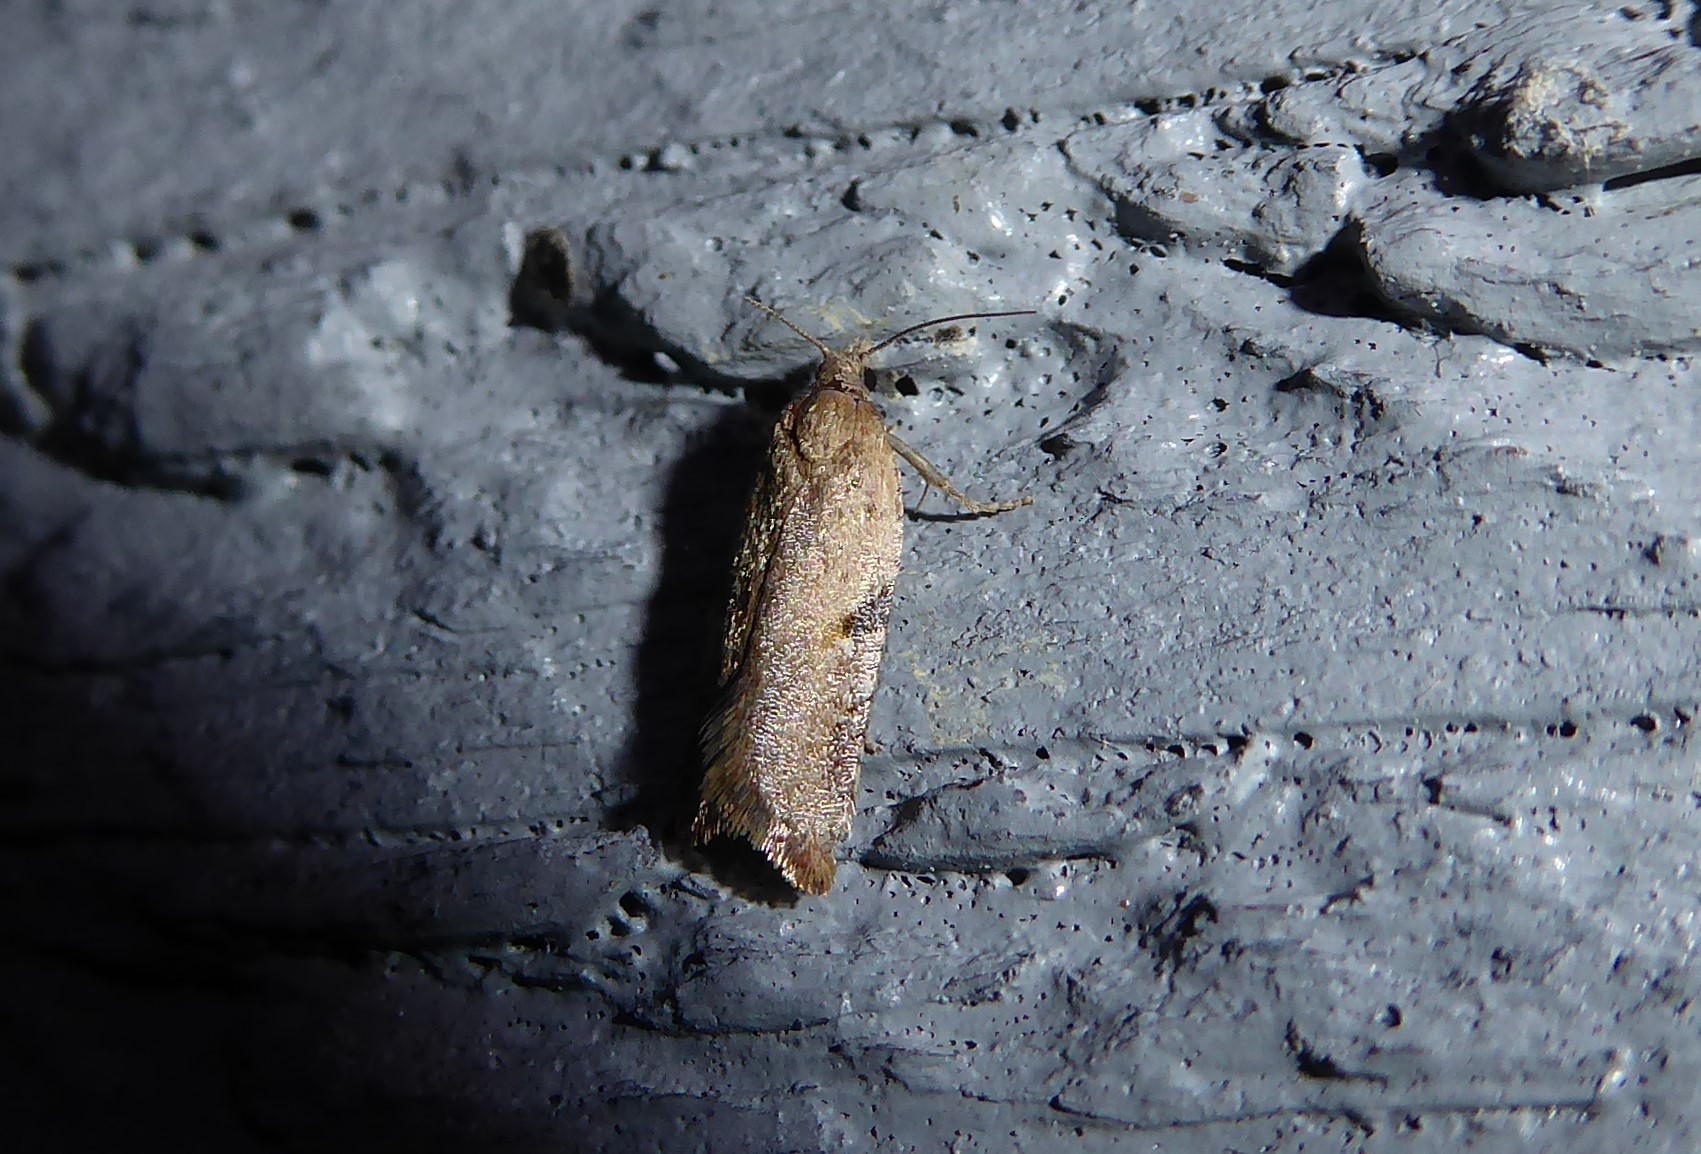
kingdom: Animalia
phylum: Arthropoda
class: Insecta
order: Lepidoptera
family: Tortricidae
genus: Capua
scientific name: Capua semiferana
